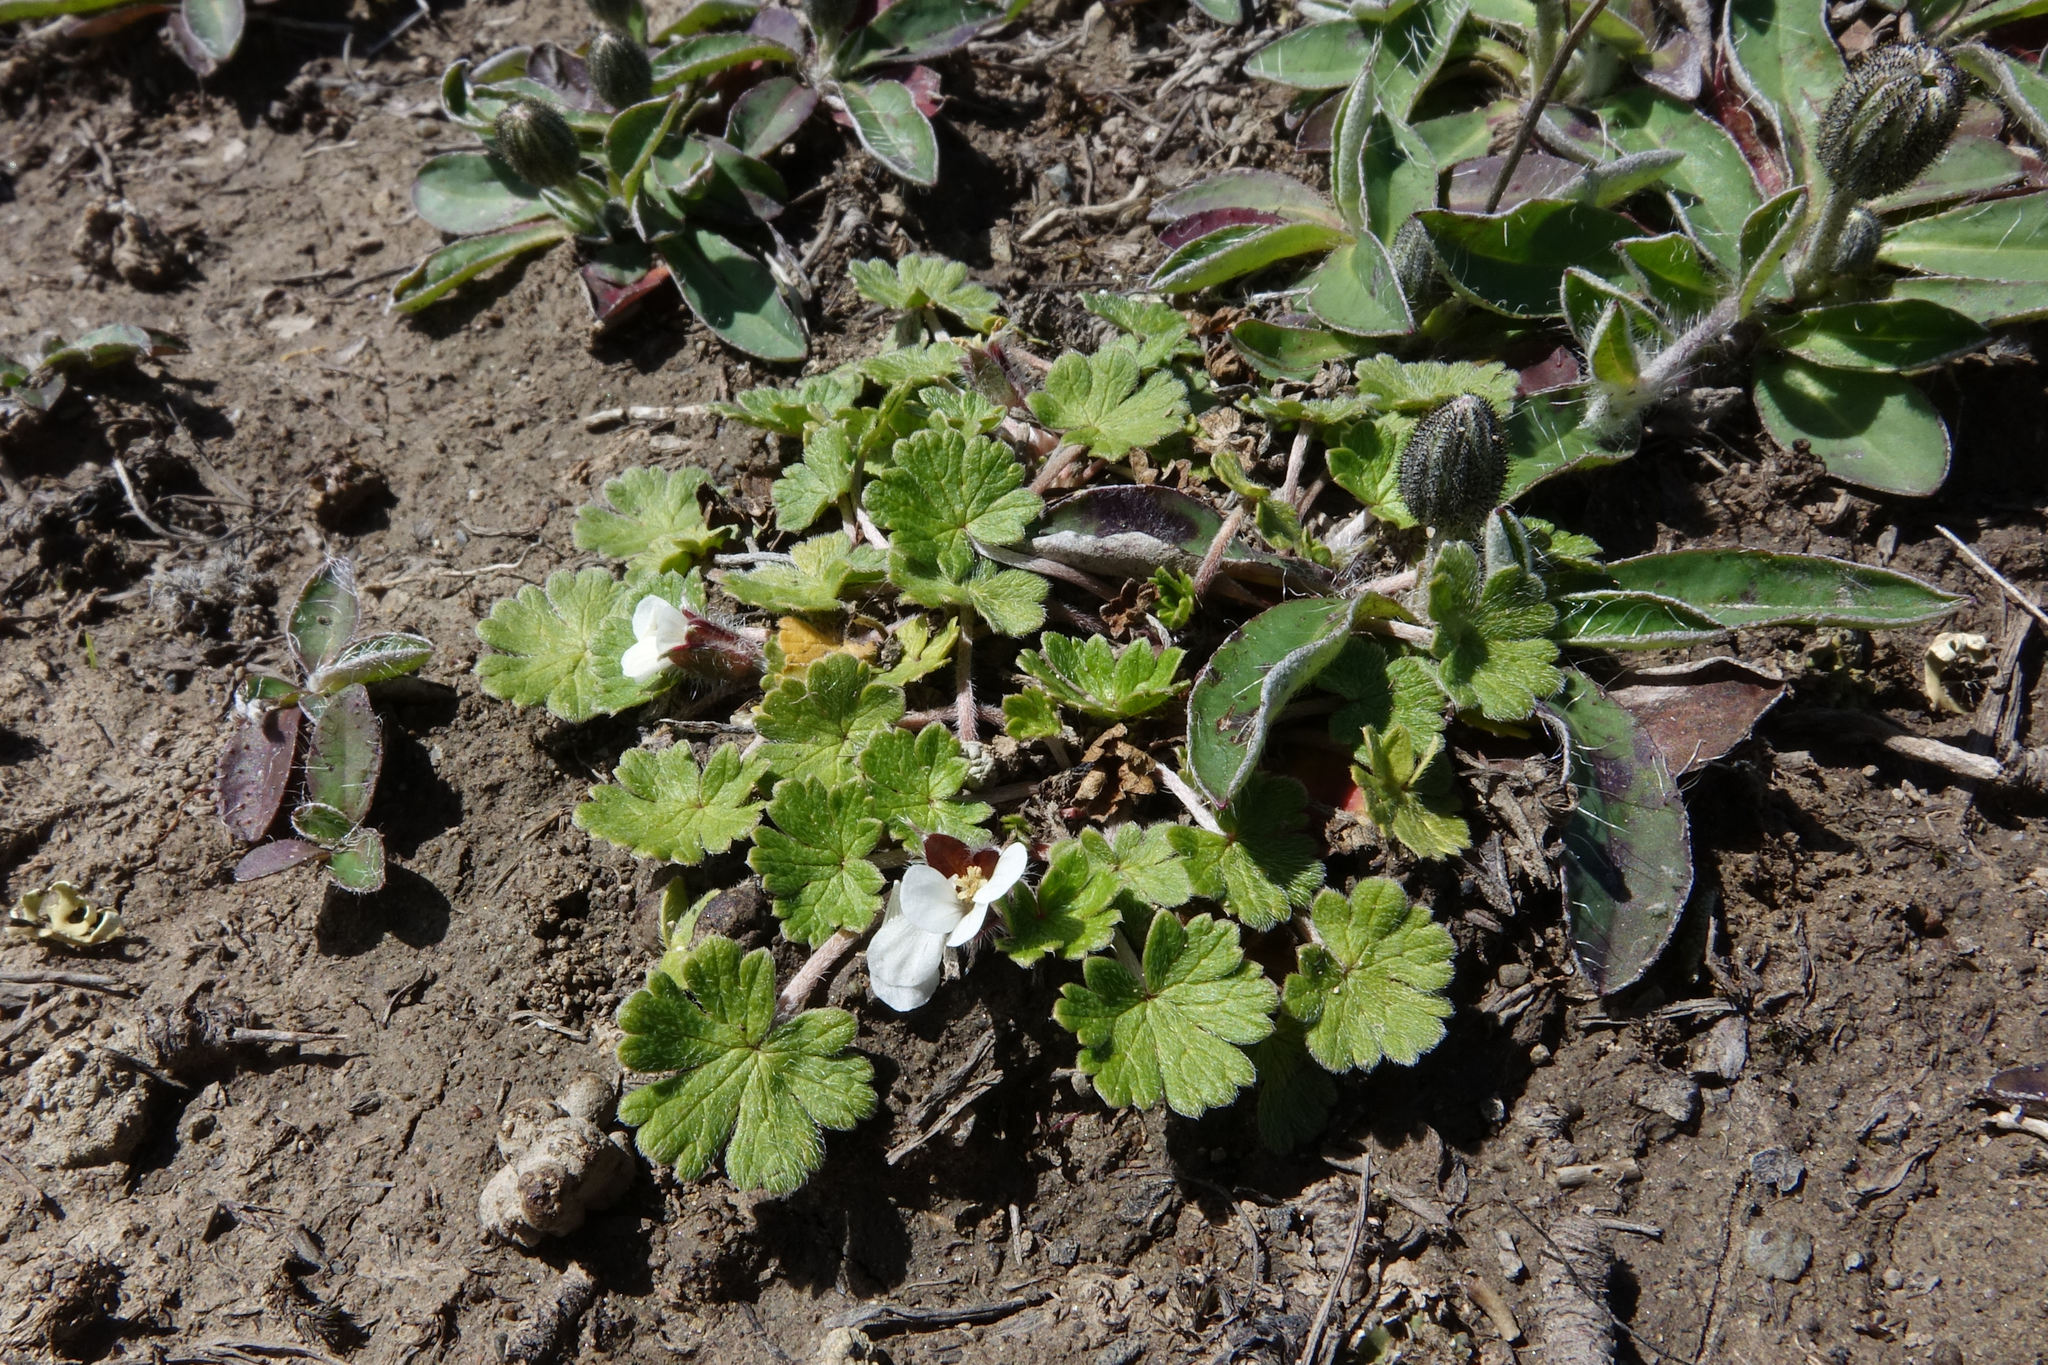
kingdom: Plantae
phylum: Tracheophyta
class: Magnoliopsida
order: Geraniales
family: Geraniaceae
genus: Geranium
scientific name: Geranium brevicaule
